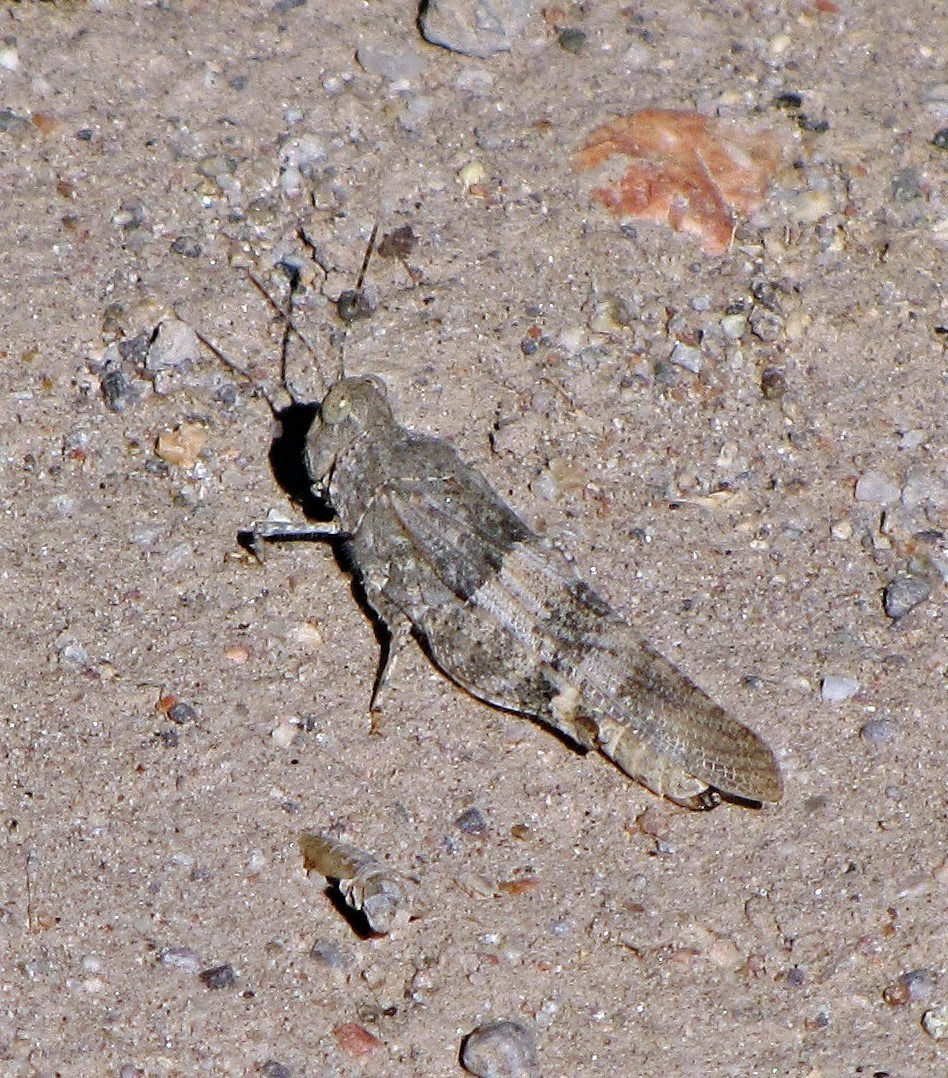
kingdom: Animalia
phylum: Arthropoda
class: Insecta
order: Orthoptera
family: Acrididae
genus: Trimerotropis
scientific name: Trimerotropis pallidipennis
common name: Pallid-winged grasshopper
